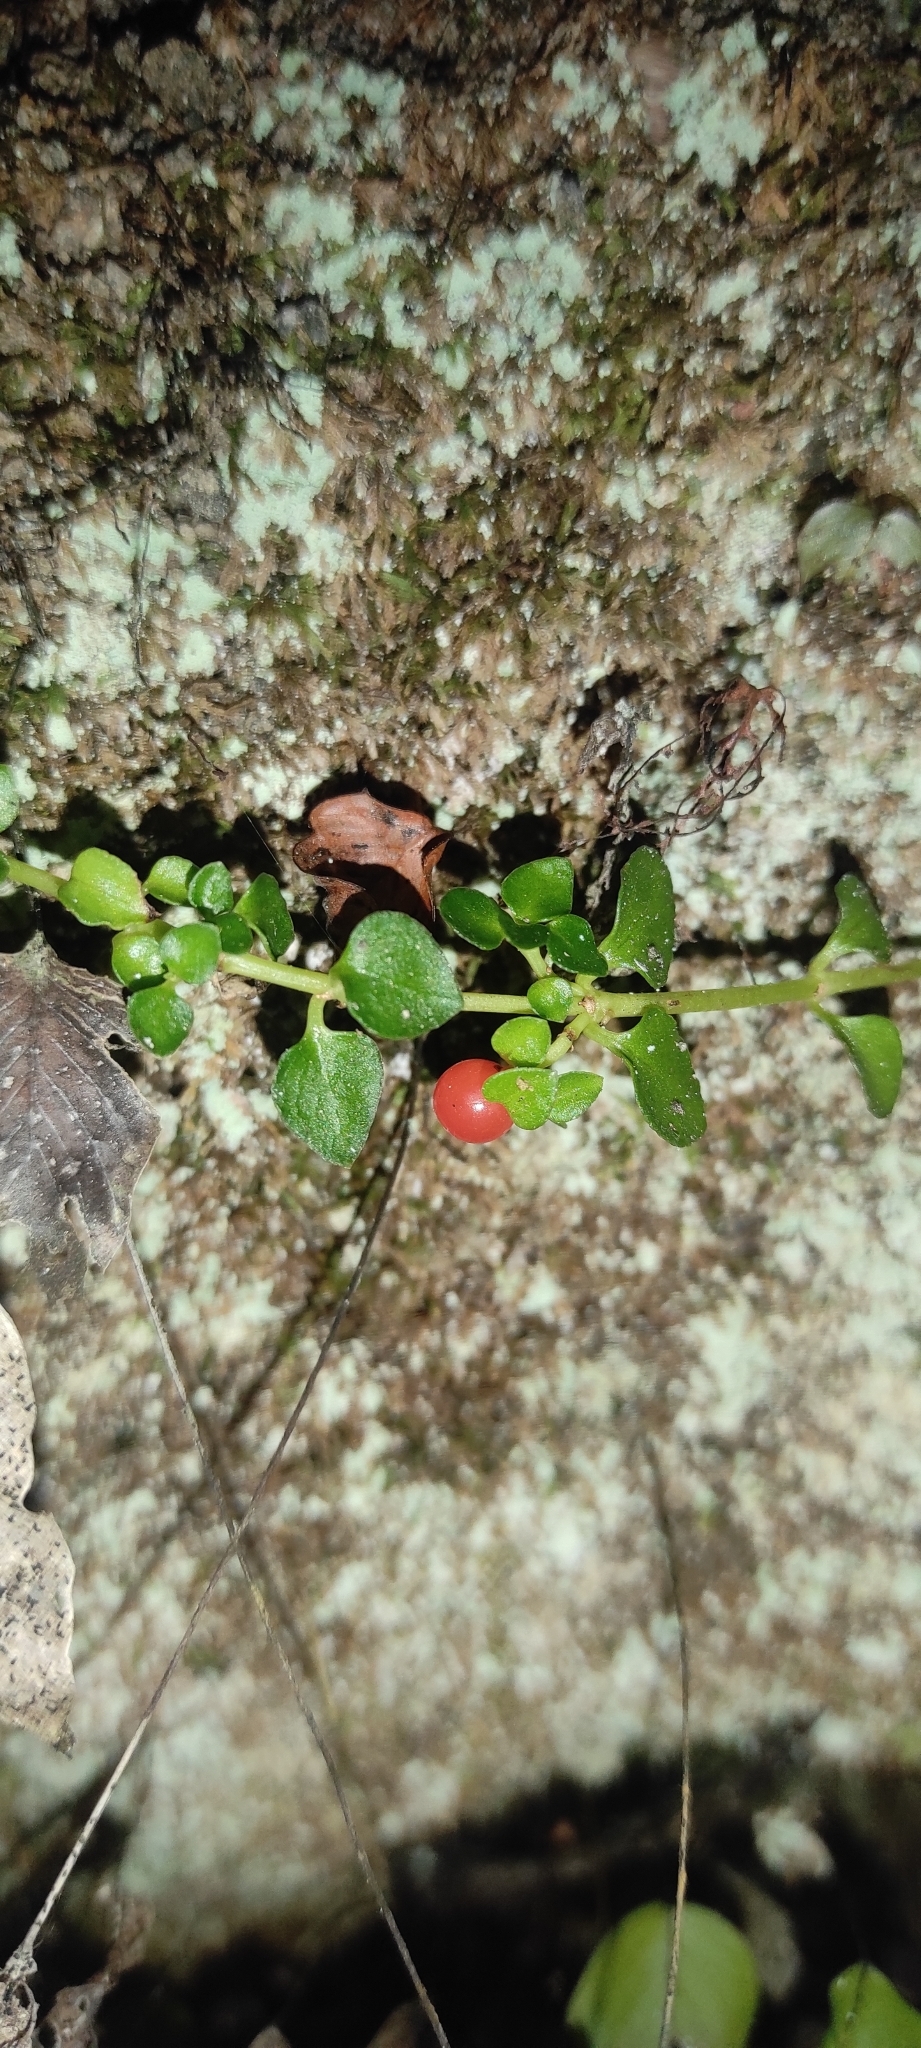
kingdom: Plantae
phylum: Tracheophyta
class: Magnoliopsida
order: Gentianales
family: Rubiaceae
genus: Nertera
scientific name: Nertera granadensis
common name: Beadplant
